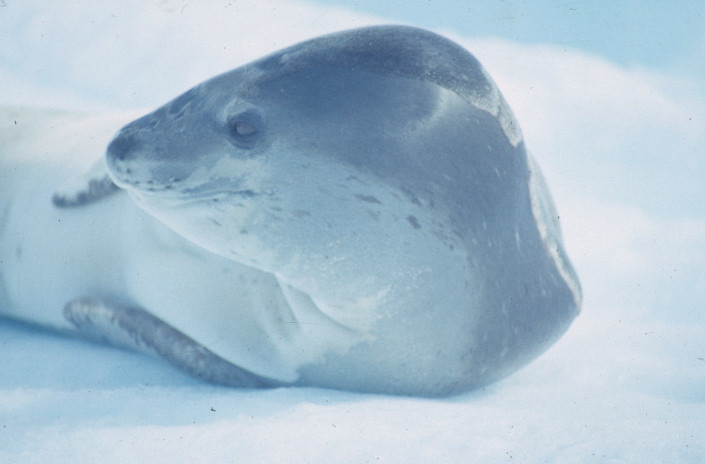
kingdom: Animalia
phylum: Chordata
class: Mammalia
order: Carnivora
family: Phocidae
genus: Hydrurga
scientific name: Hydrurga leptonyx
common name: Leopard seal
